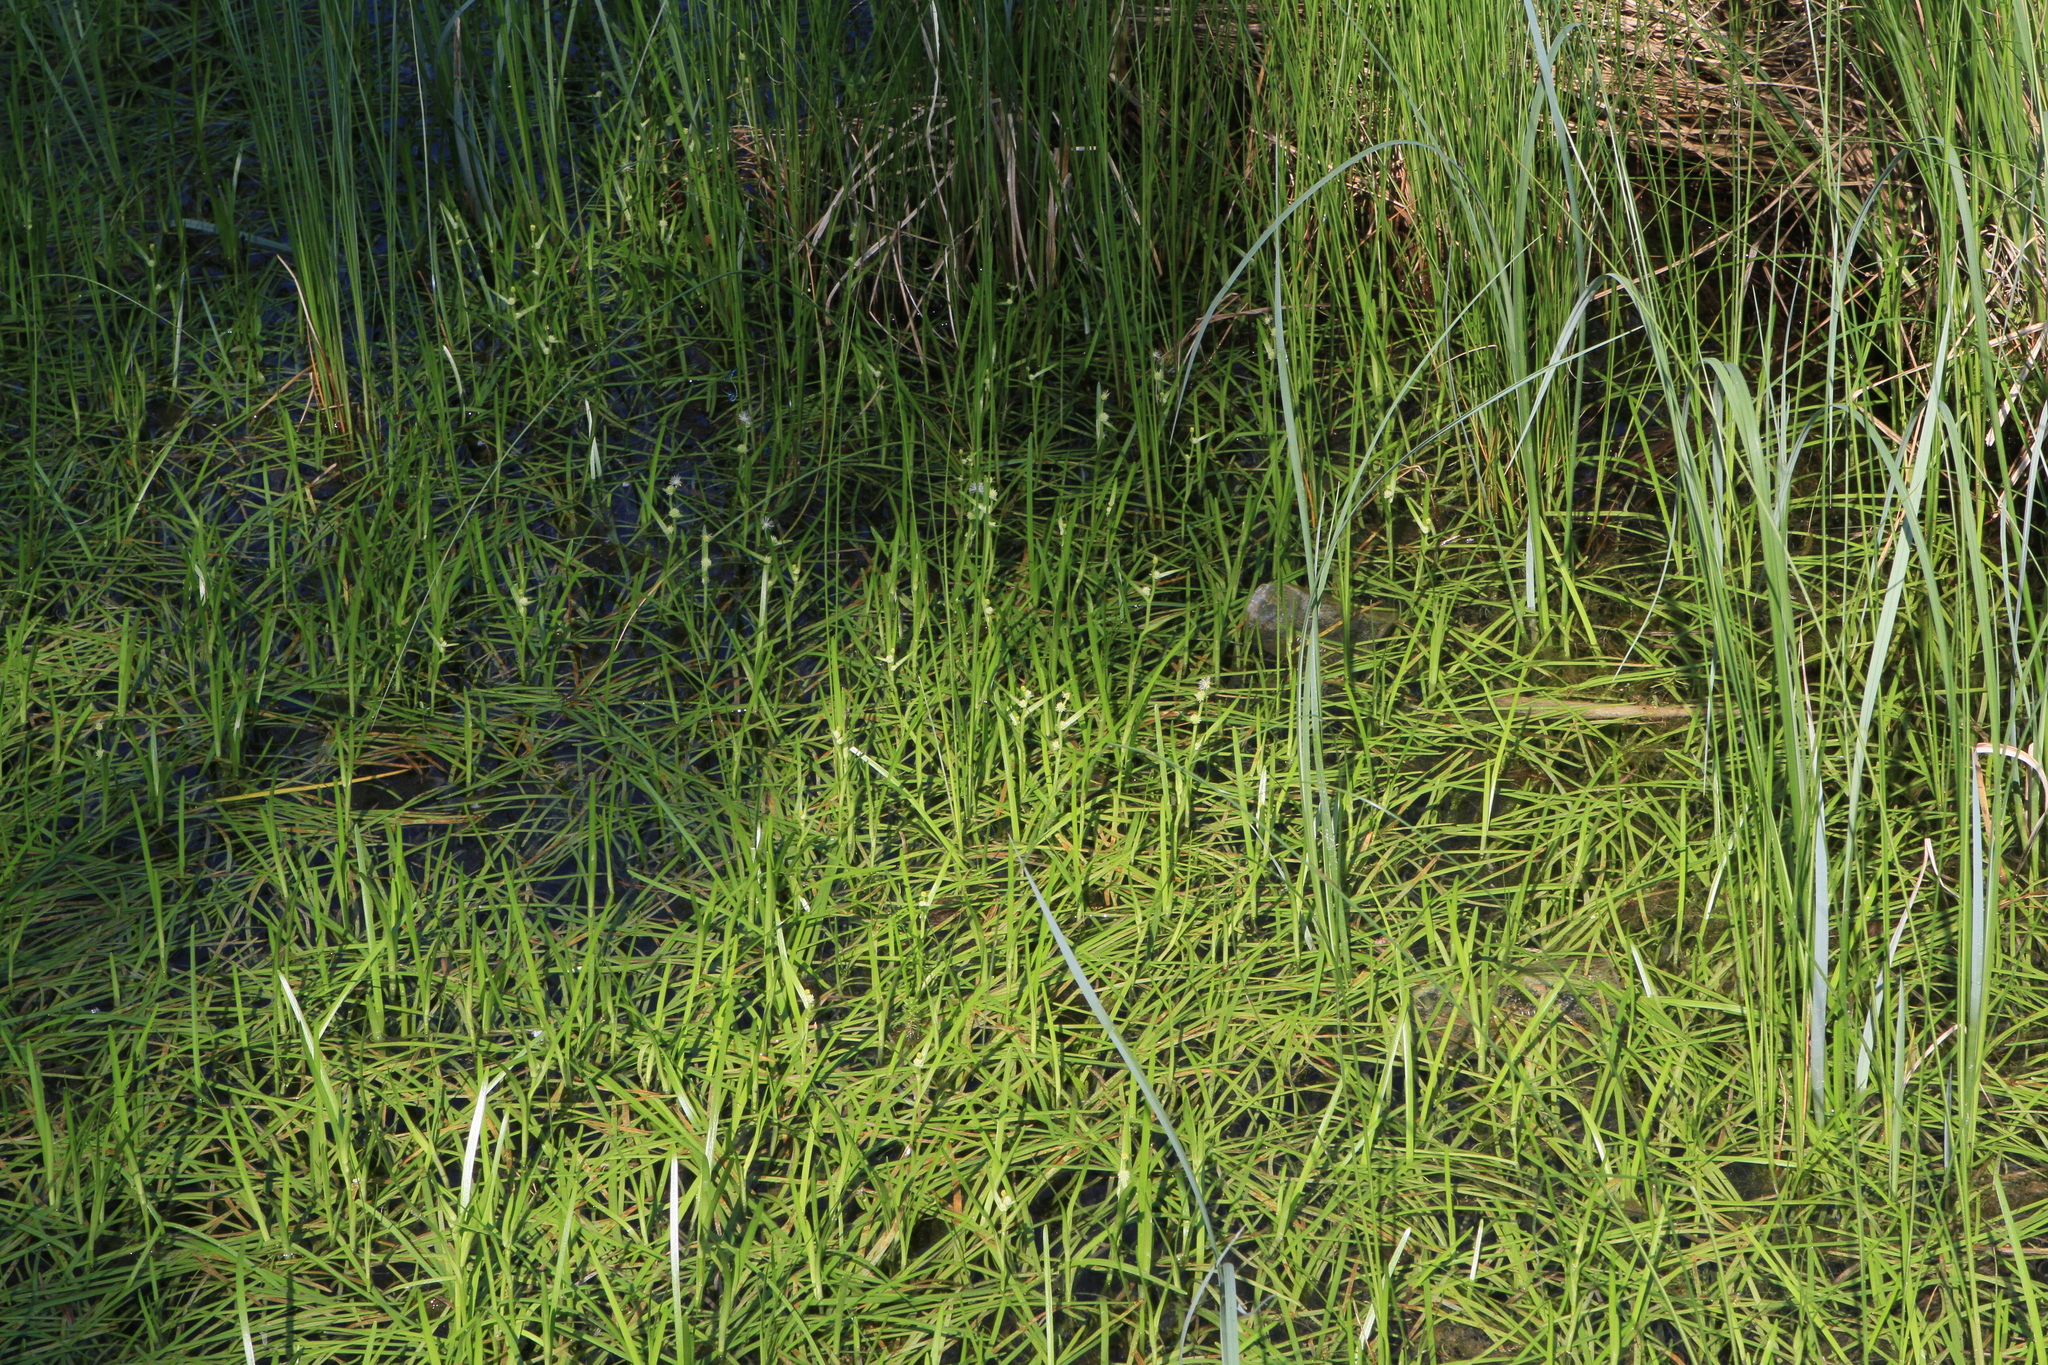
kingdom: Plantae
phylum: Tracheophyta
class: Liliopsida
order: Poales
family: Typhaceae
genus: Sparganium
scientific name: Sparganium natans
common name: Least bur-reed
